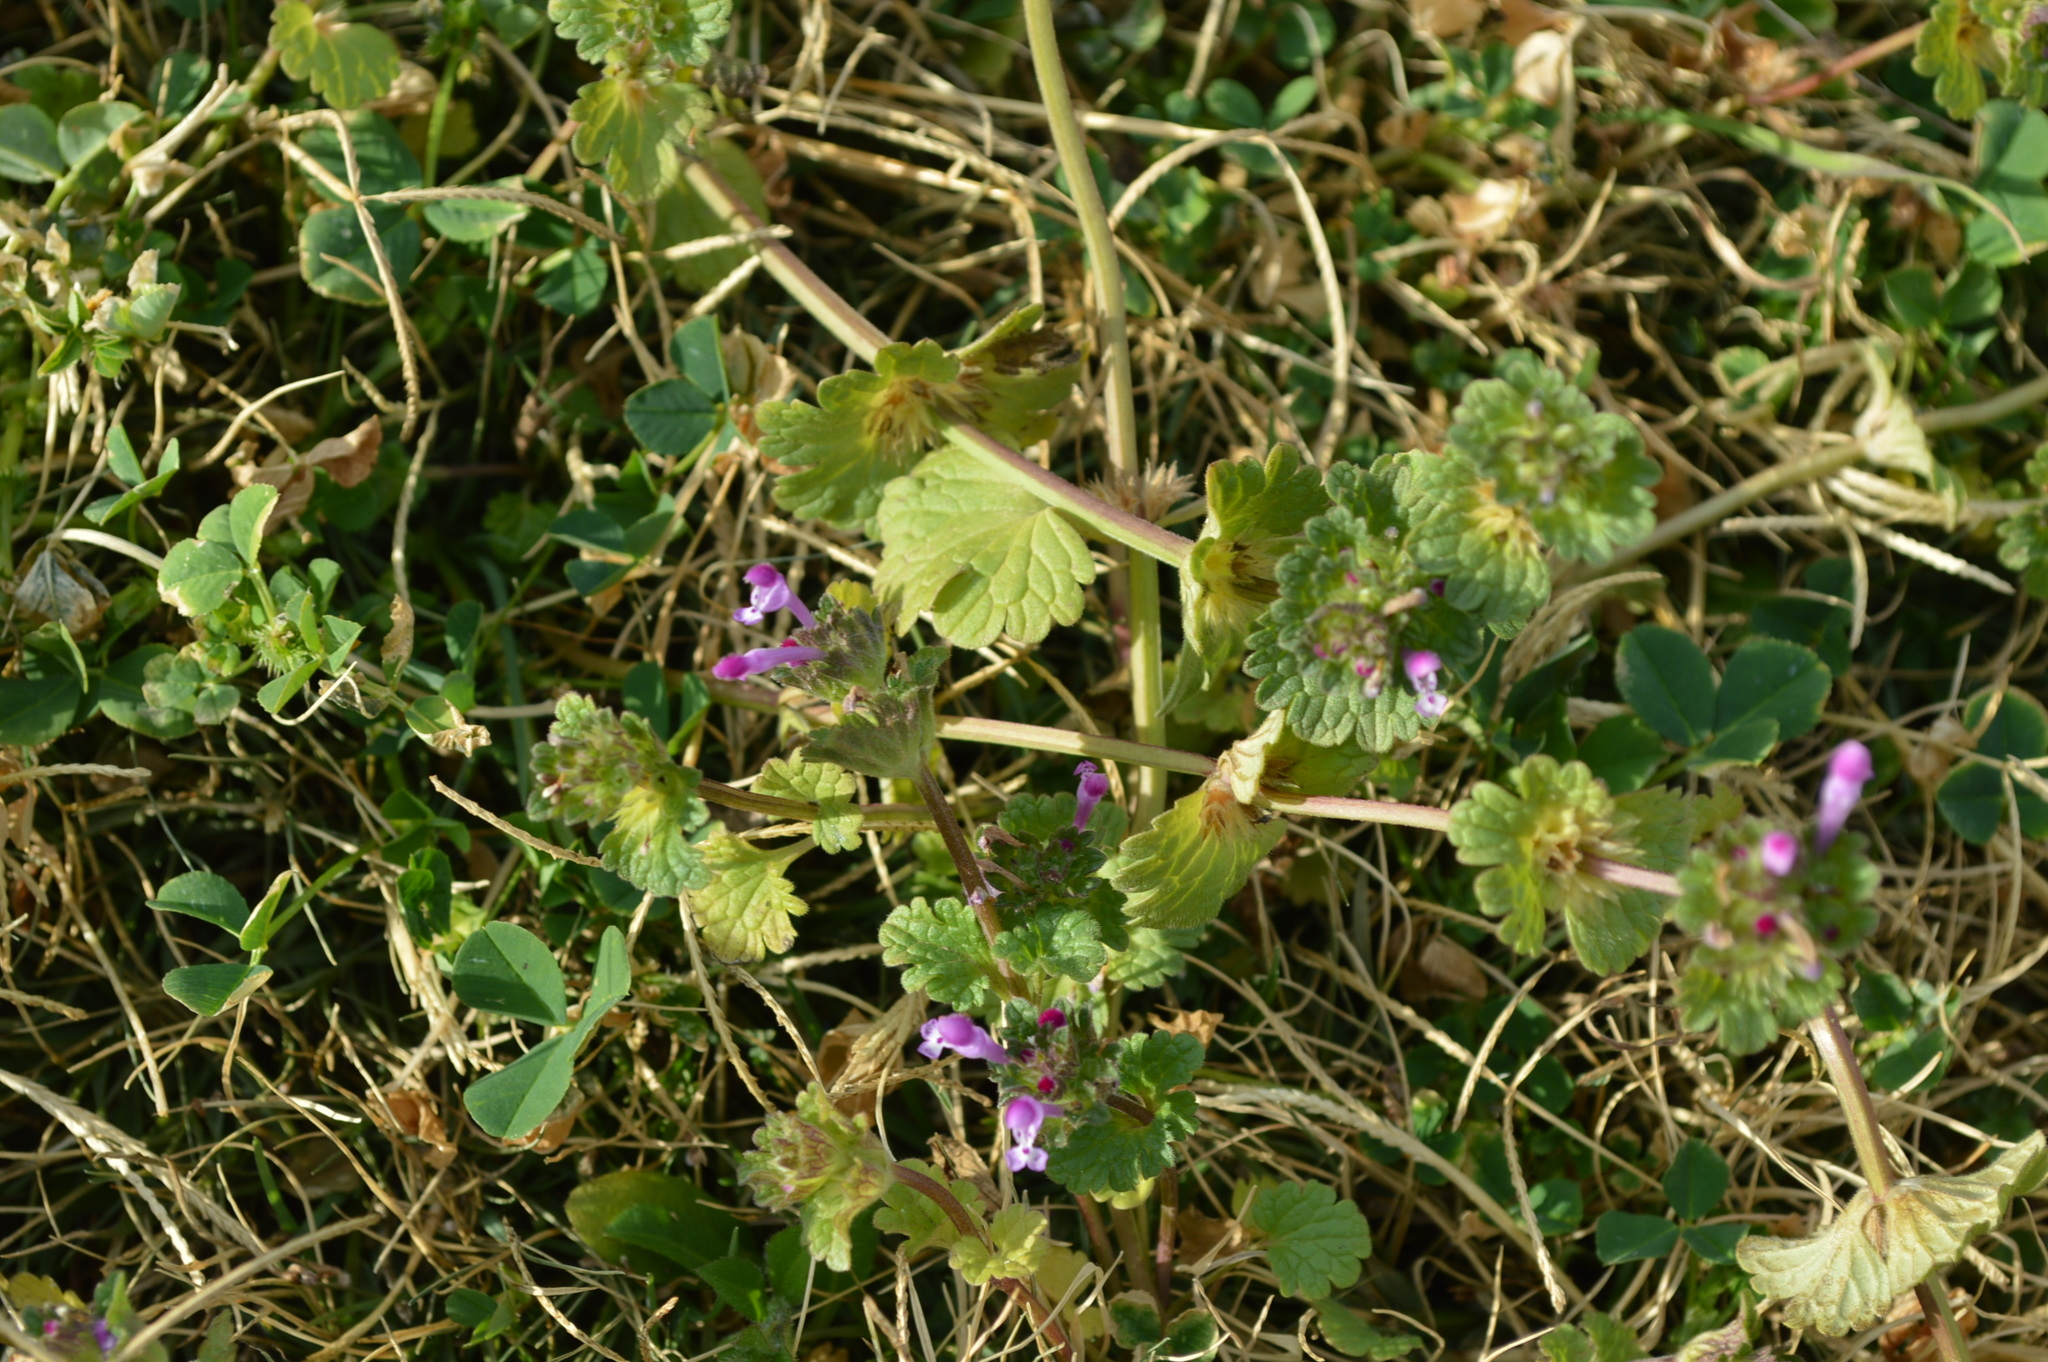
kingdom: Plantae
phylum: Tracheophyta
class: Magnoliopsida
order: Lamiales
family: Lamiaceae
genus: Lamium
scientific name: Lamium amplexicaule
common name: Henbit dead-nettle
